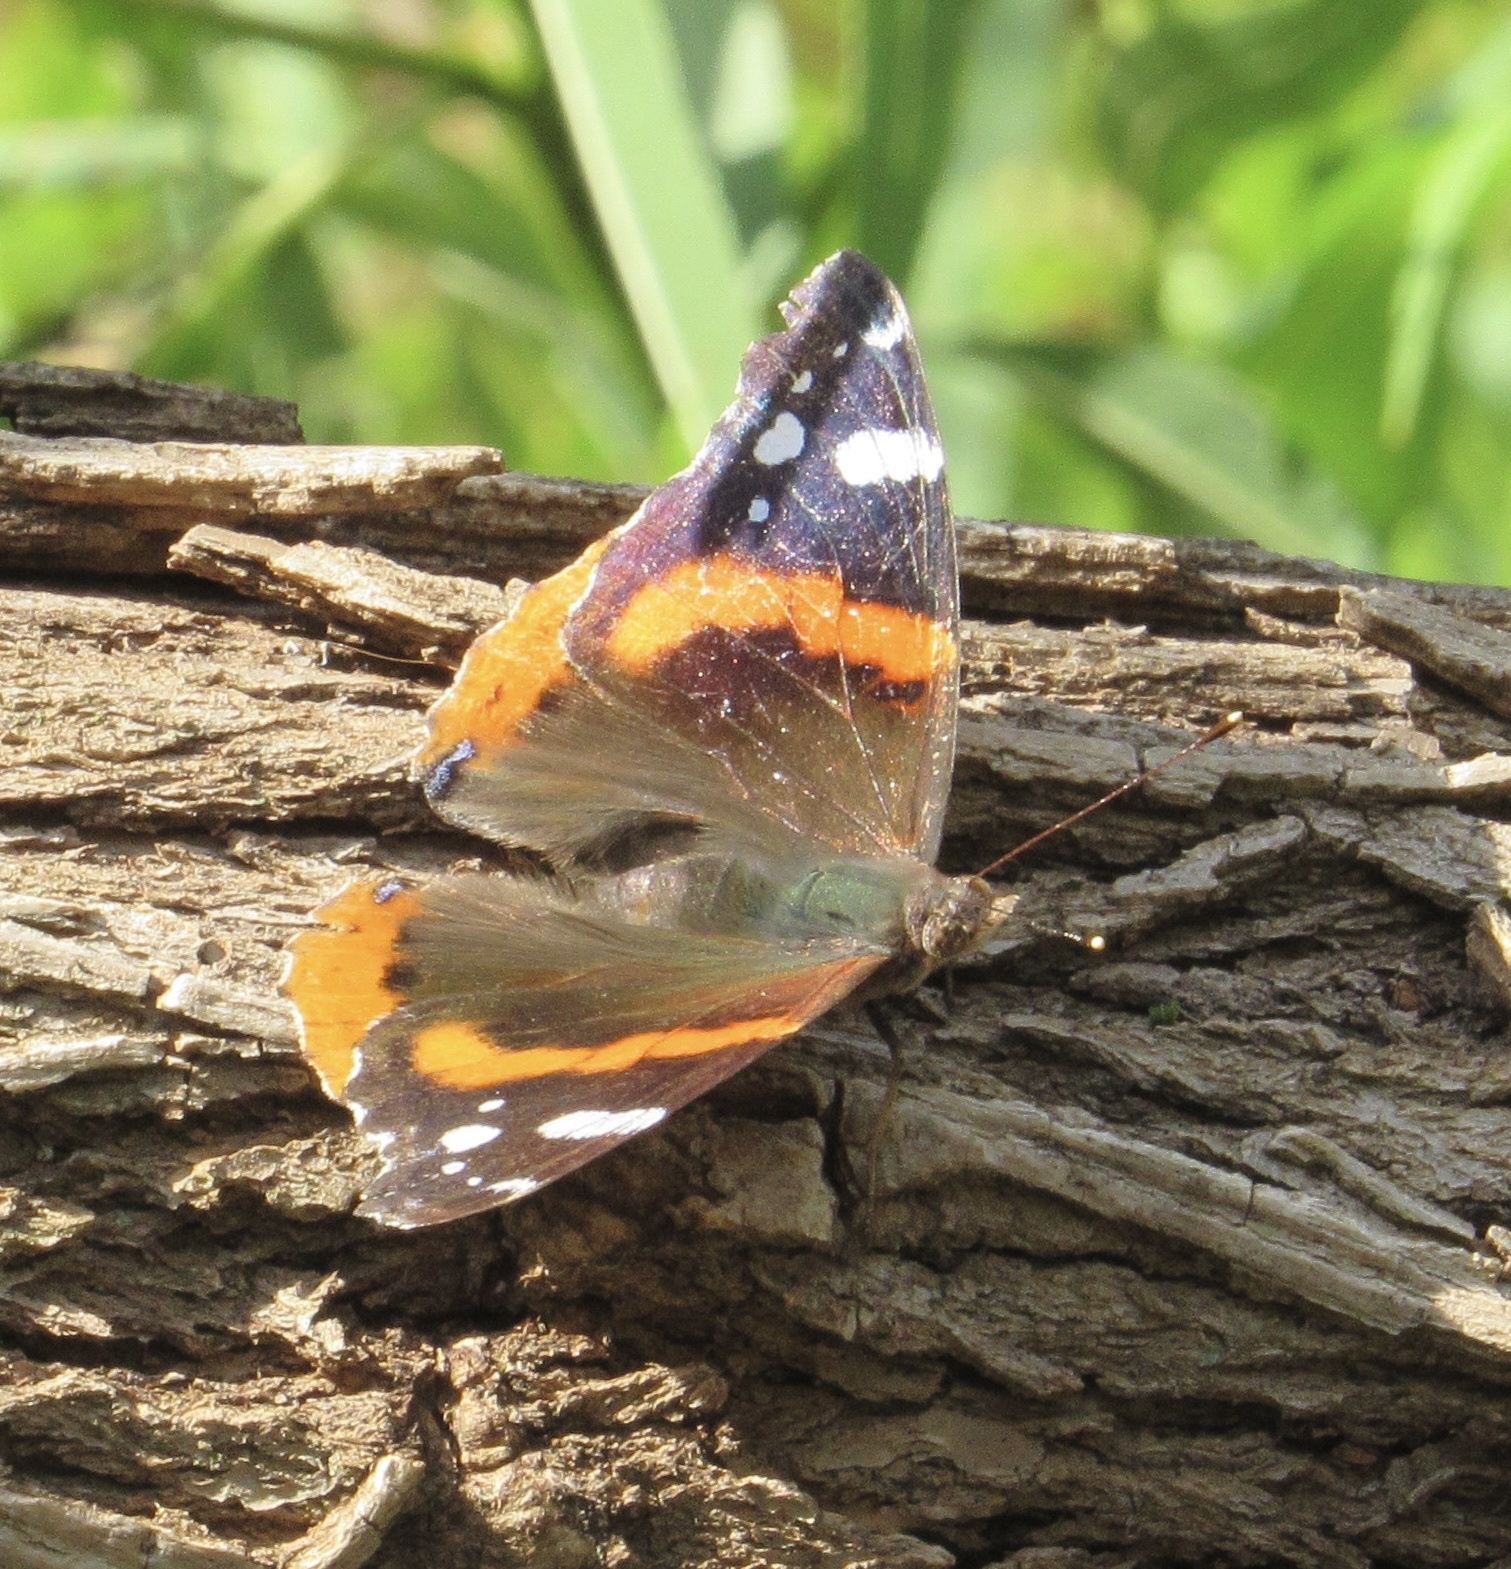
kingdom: Animalia
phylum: Arthropoda
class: Insecta
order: Lepidoptera
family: Nymphalidae
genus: Vanessa
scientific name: Vanessa atalanta
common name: Red admiral
